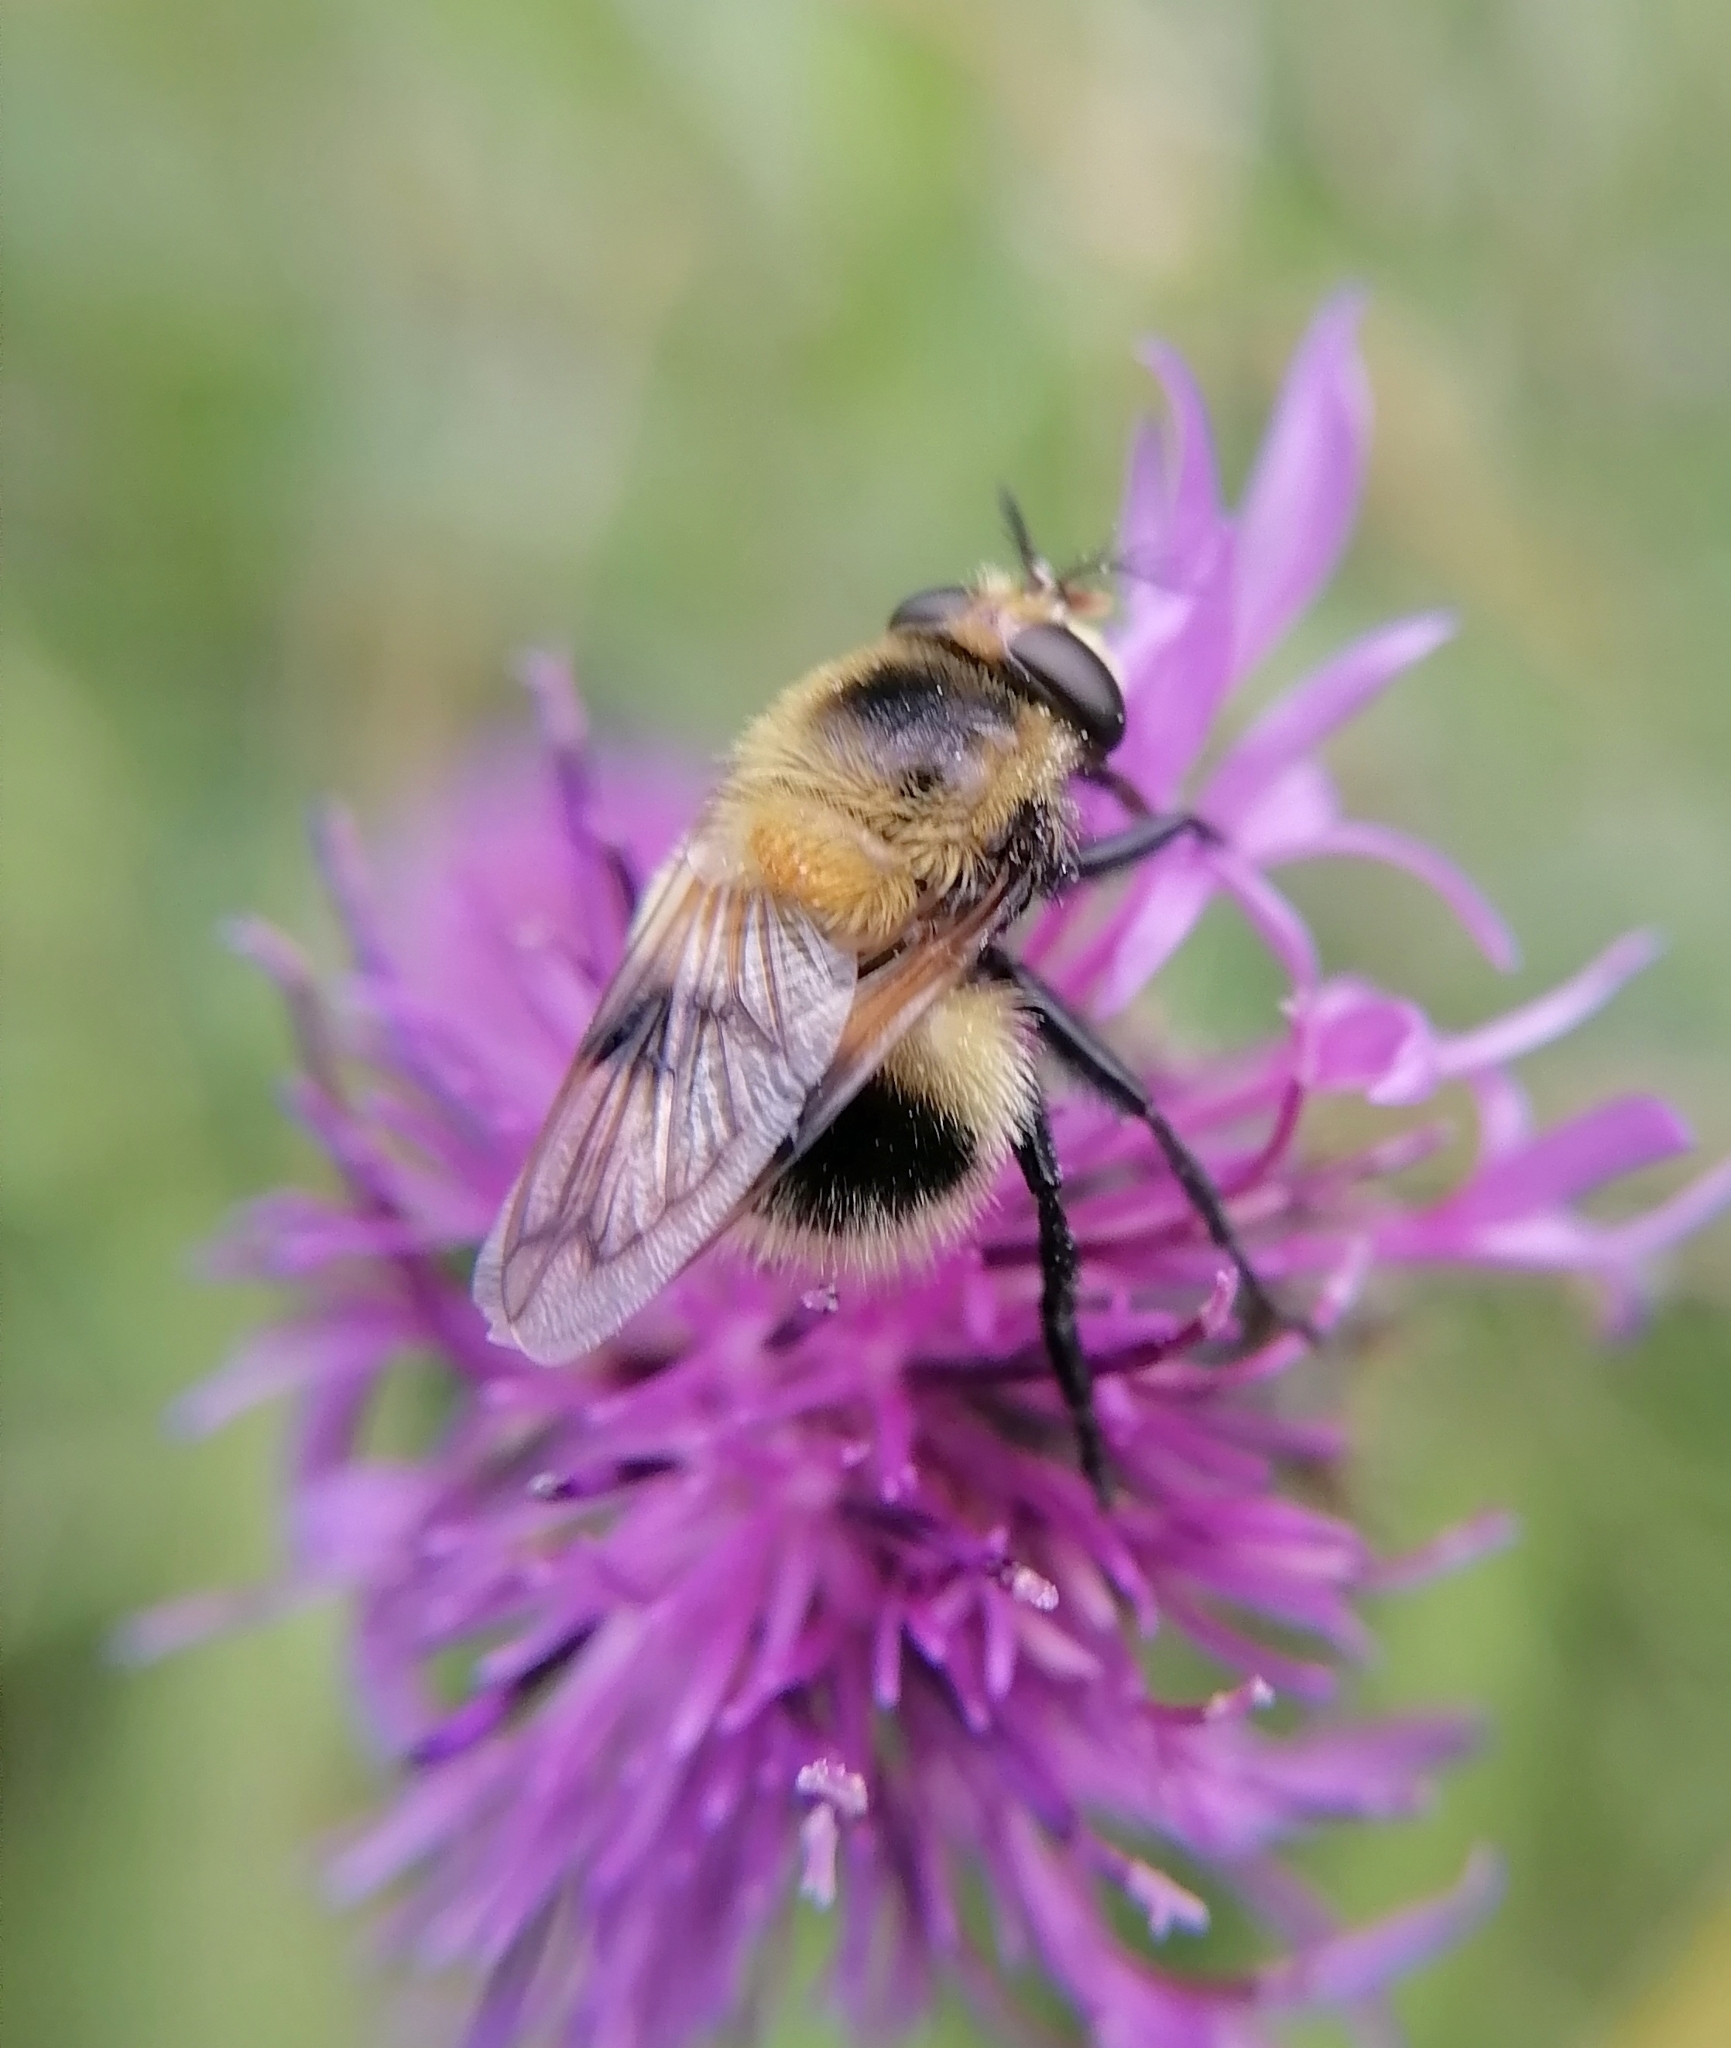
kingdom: Animalia
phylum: Arthropoda
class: Insecta
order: Diptera
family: Syrphidae
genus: Volucella
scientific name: Volucella bombylans
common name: Bumble bee hover fly
